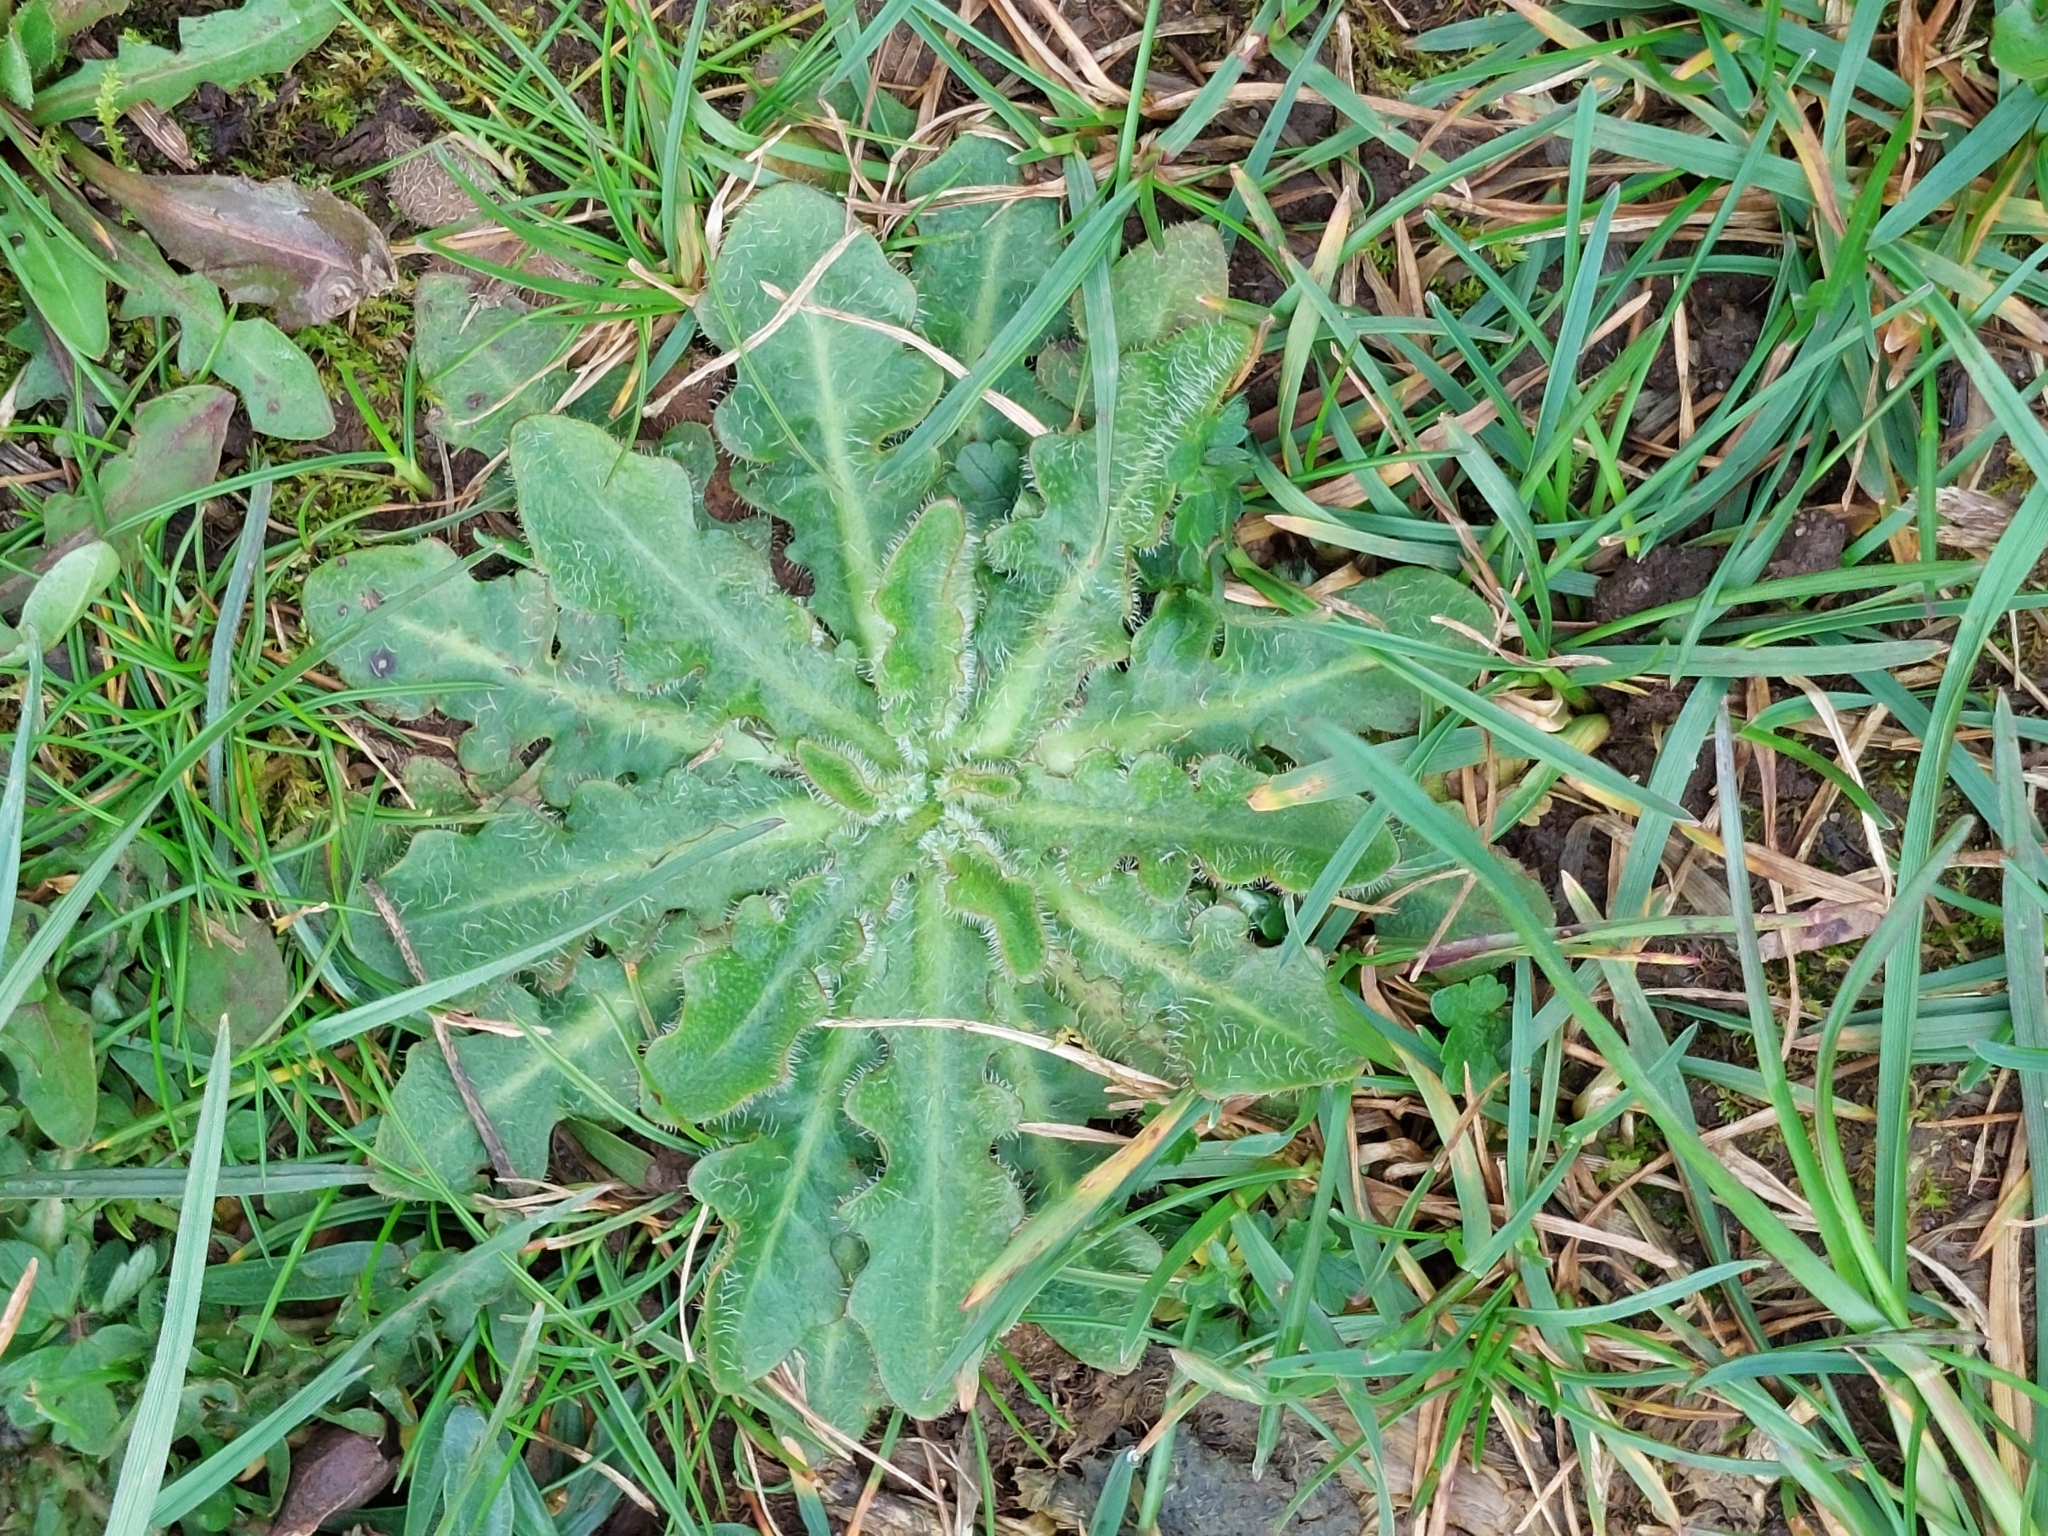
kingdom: Plantae
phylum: Tracheophyta
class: Magnoliopsida
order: Asterales
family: Asteraceae
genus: Hypochaeris
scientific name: Hypochaeris radicata
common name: Flatweed
